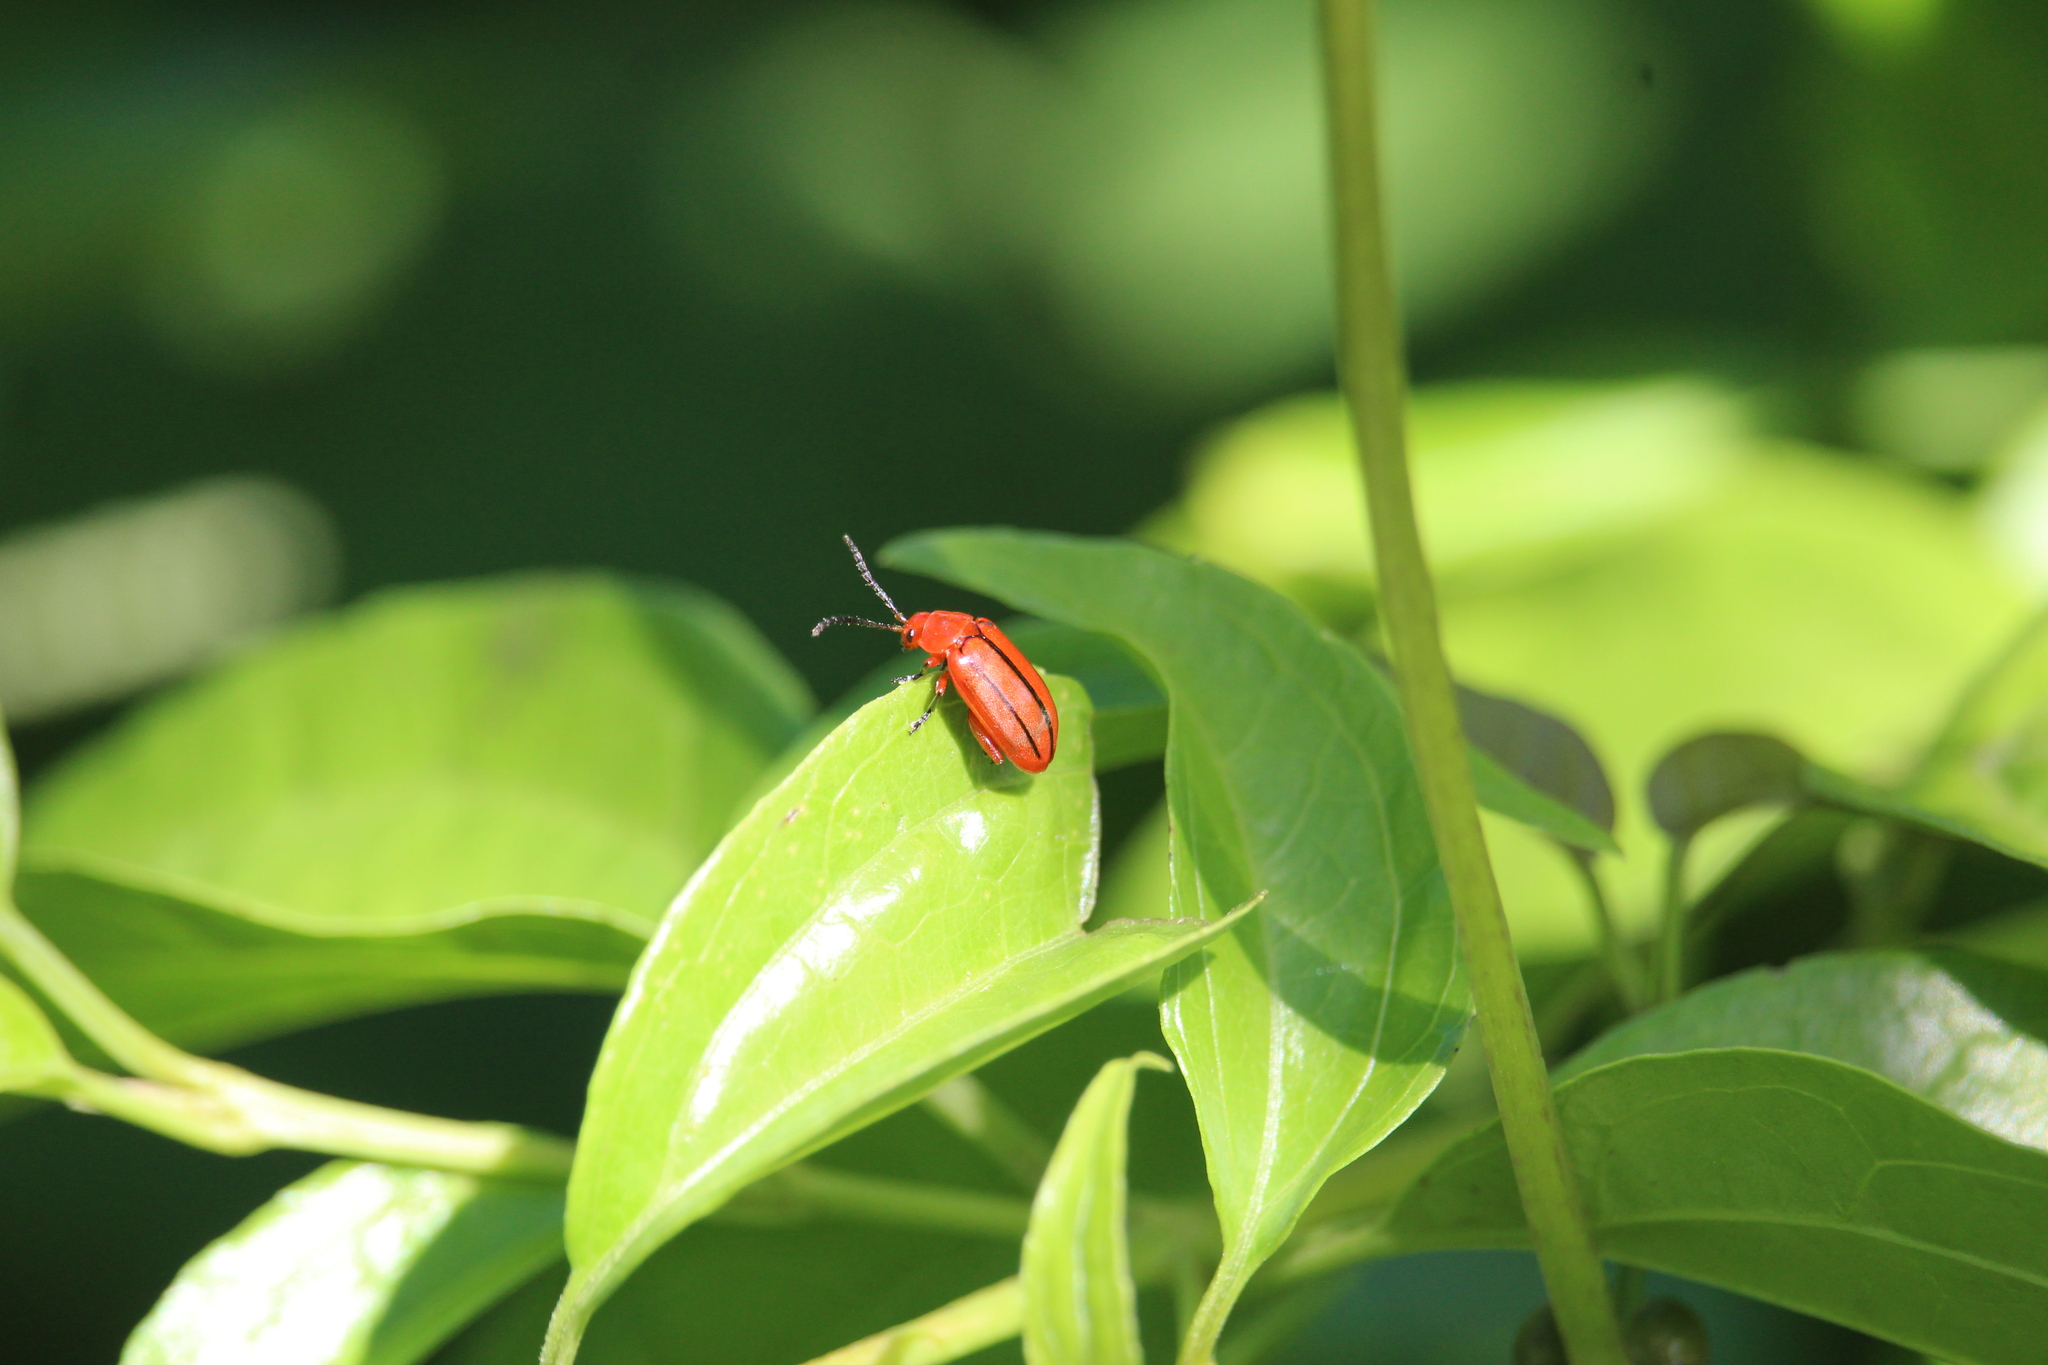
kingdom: Animalia
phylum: Arthropoda
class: Insecta
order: Coleoptera
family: Chrysomelidae
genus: Disonycha
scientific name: Disonycha
